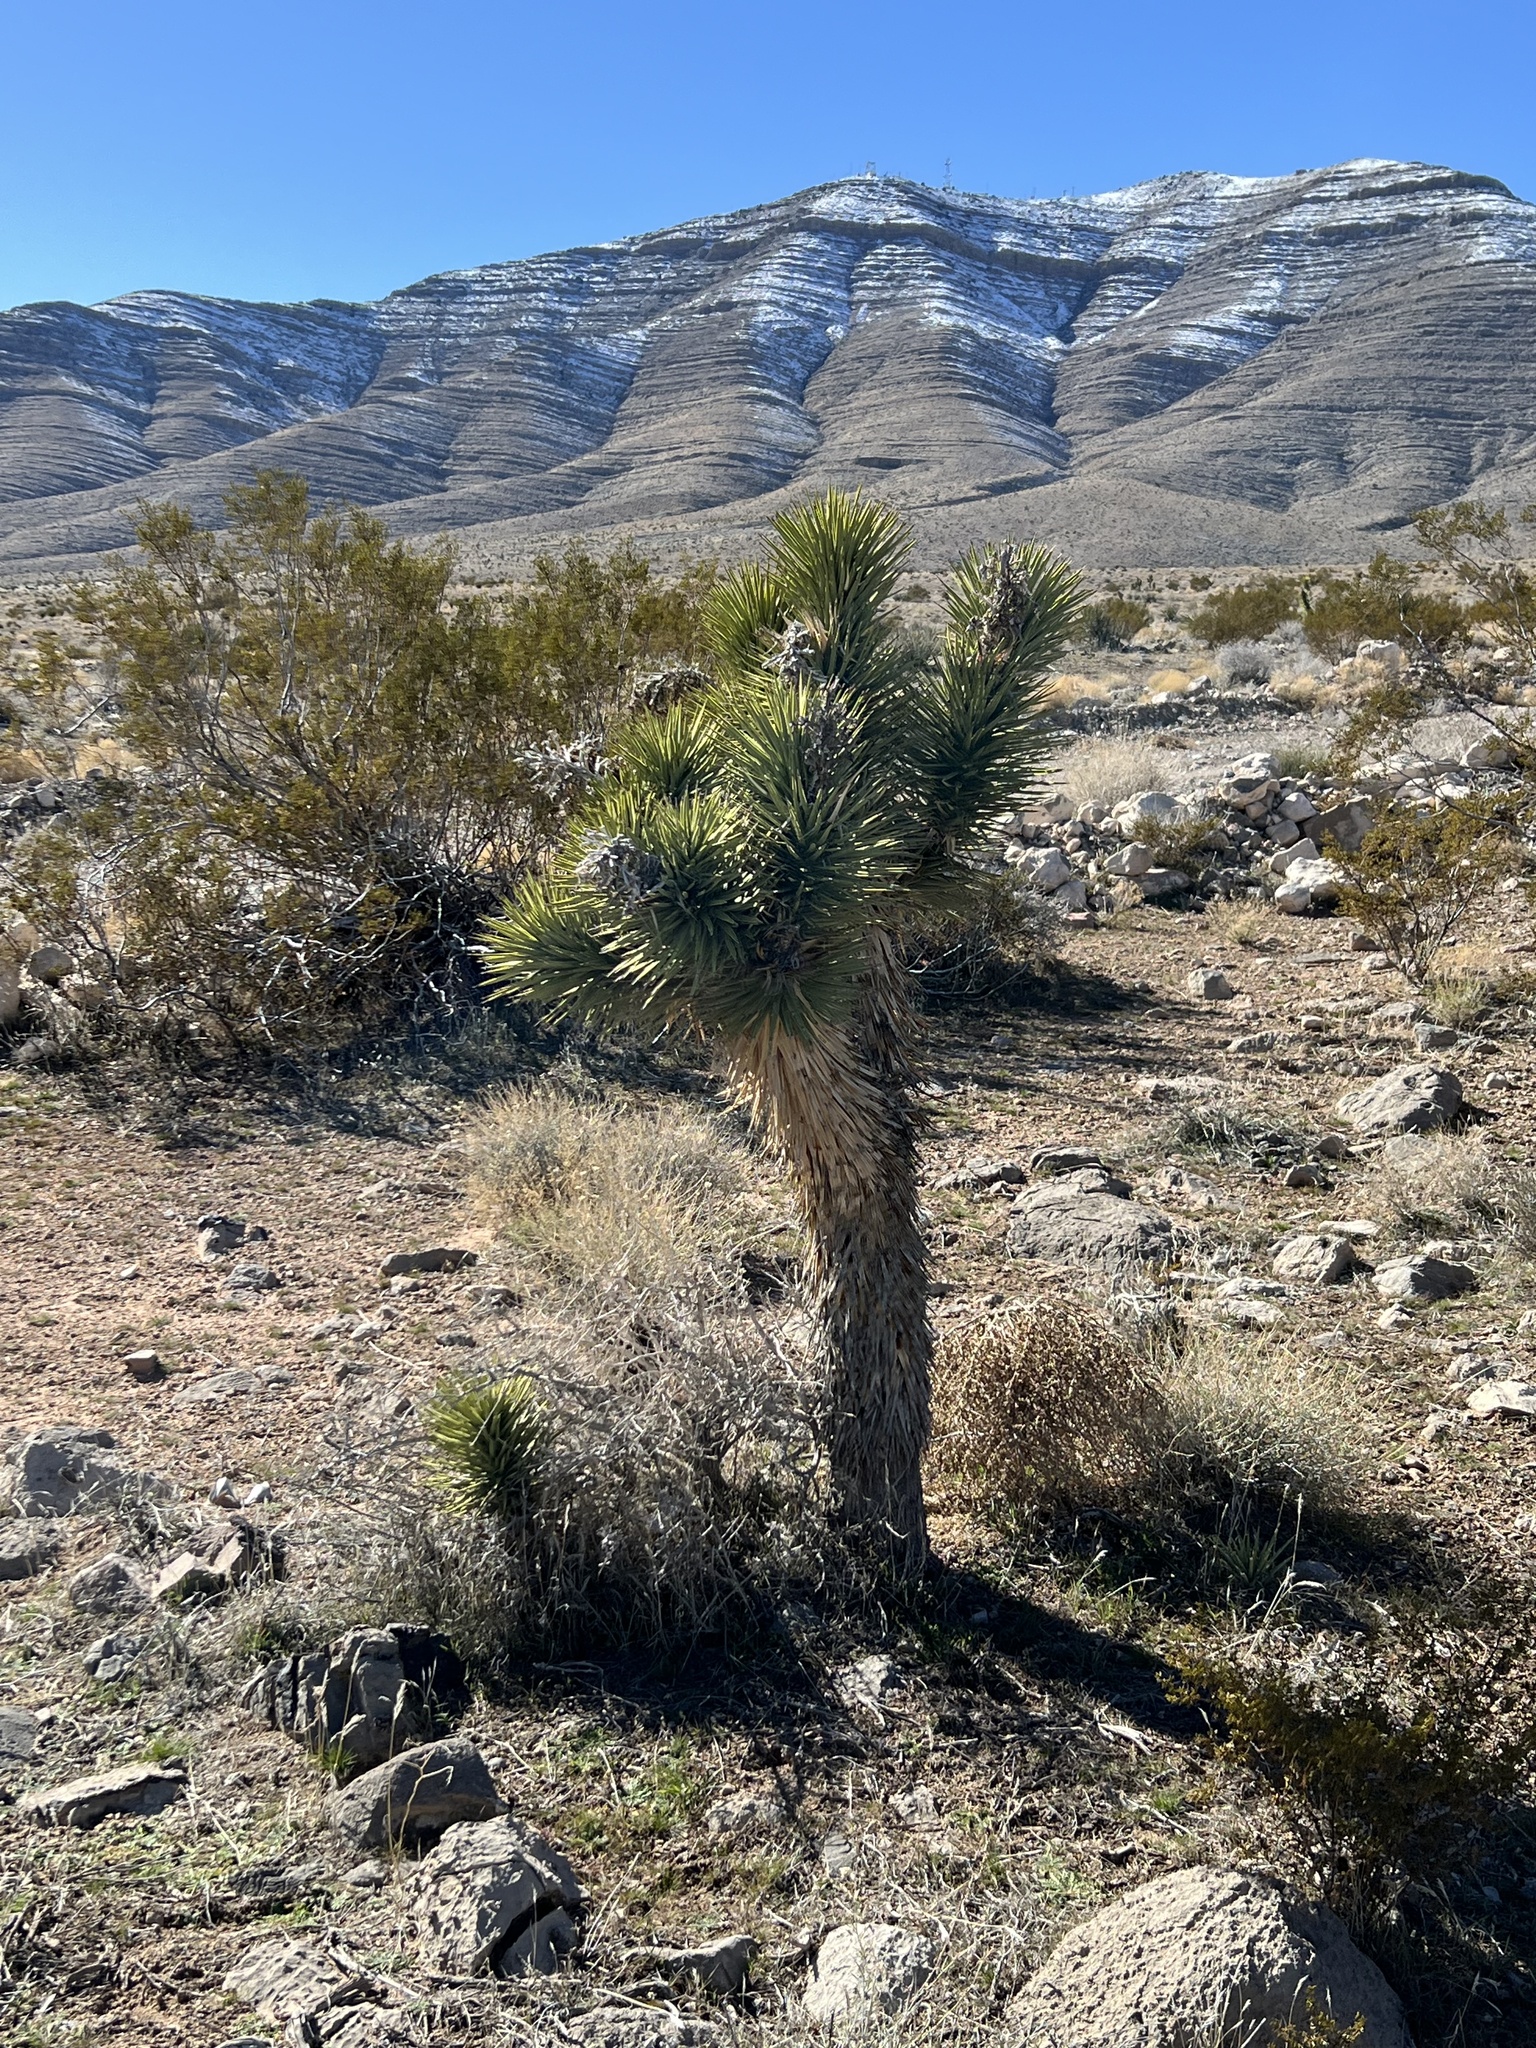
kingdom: Plantae
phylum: Tracheophyta
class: Liliopsida
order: Asparagales
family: Asparagaceae
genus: Yucca
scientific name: Yucca brevifolia
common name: Joshua tree
